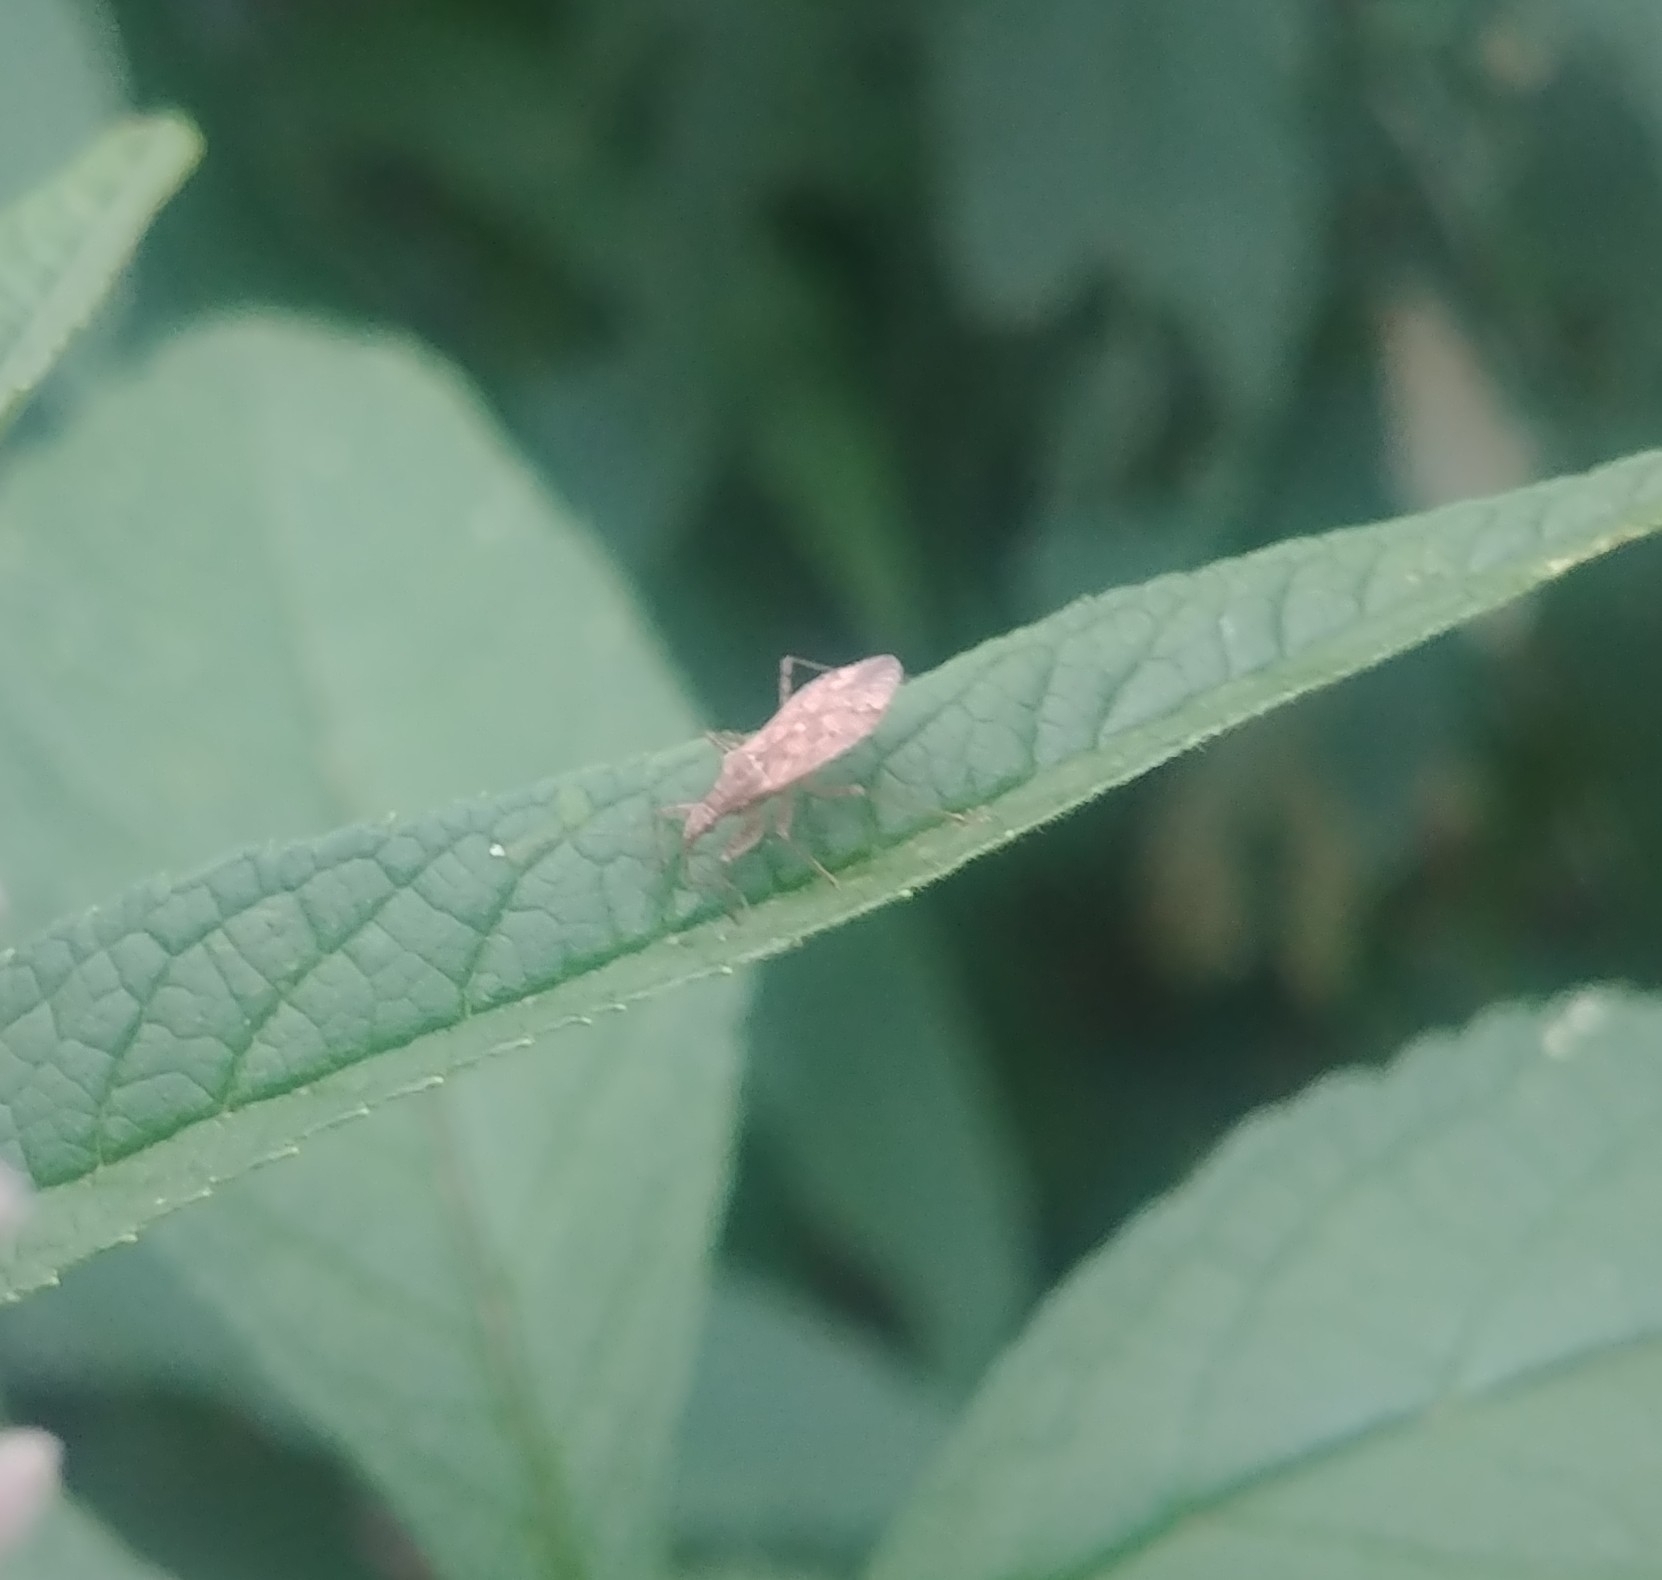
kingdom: Animalia
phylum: Arthropoda
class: Insecta
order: Hemiptera
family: Nabidae
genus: Nabis
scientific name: Nabis roseipennis
